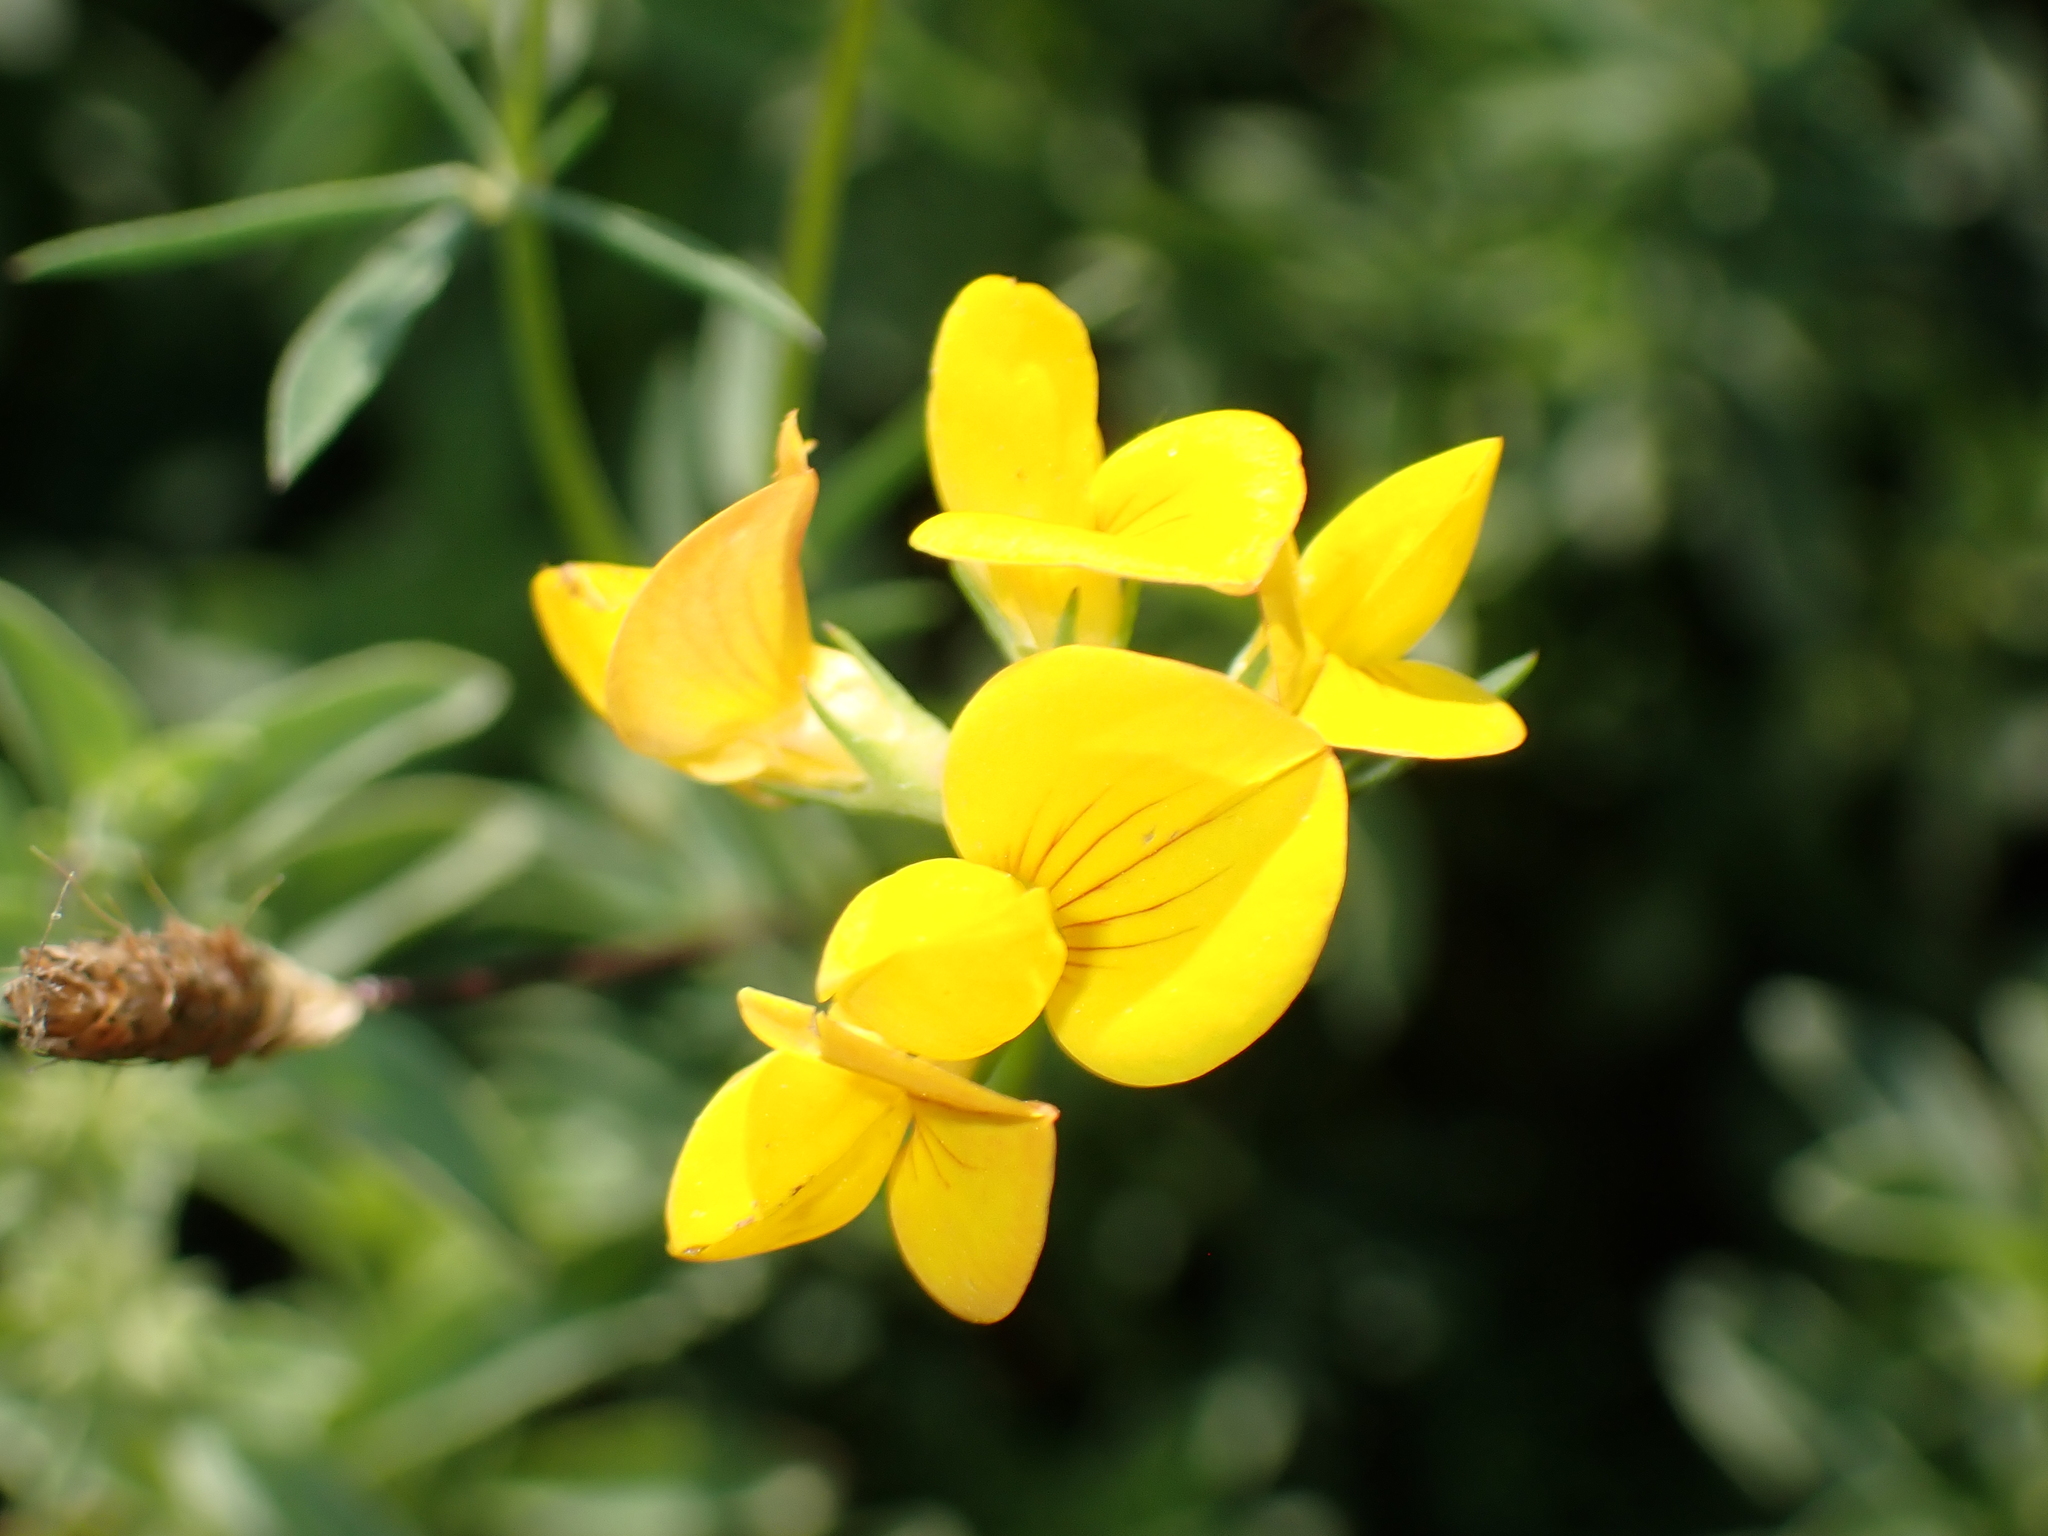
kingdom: Plantae
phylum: Tracheophyta
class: Magnoliopsida
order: Fabales
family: Fabaceae
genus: Lotus
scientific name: Lotus tenuis
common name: Narrow-leaved bird's-foot-trefoil
